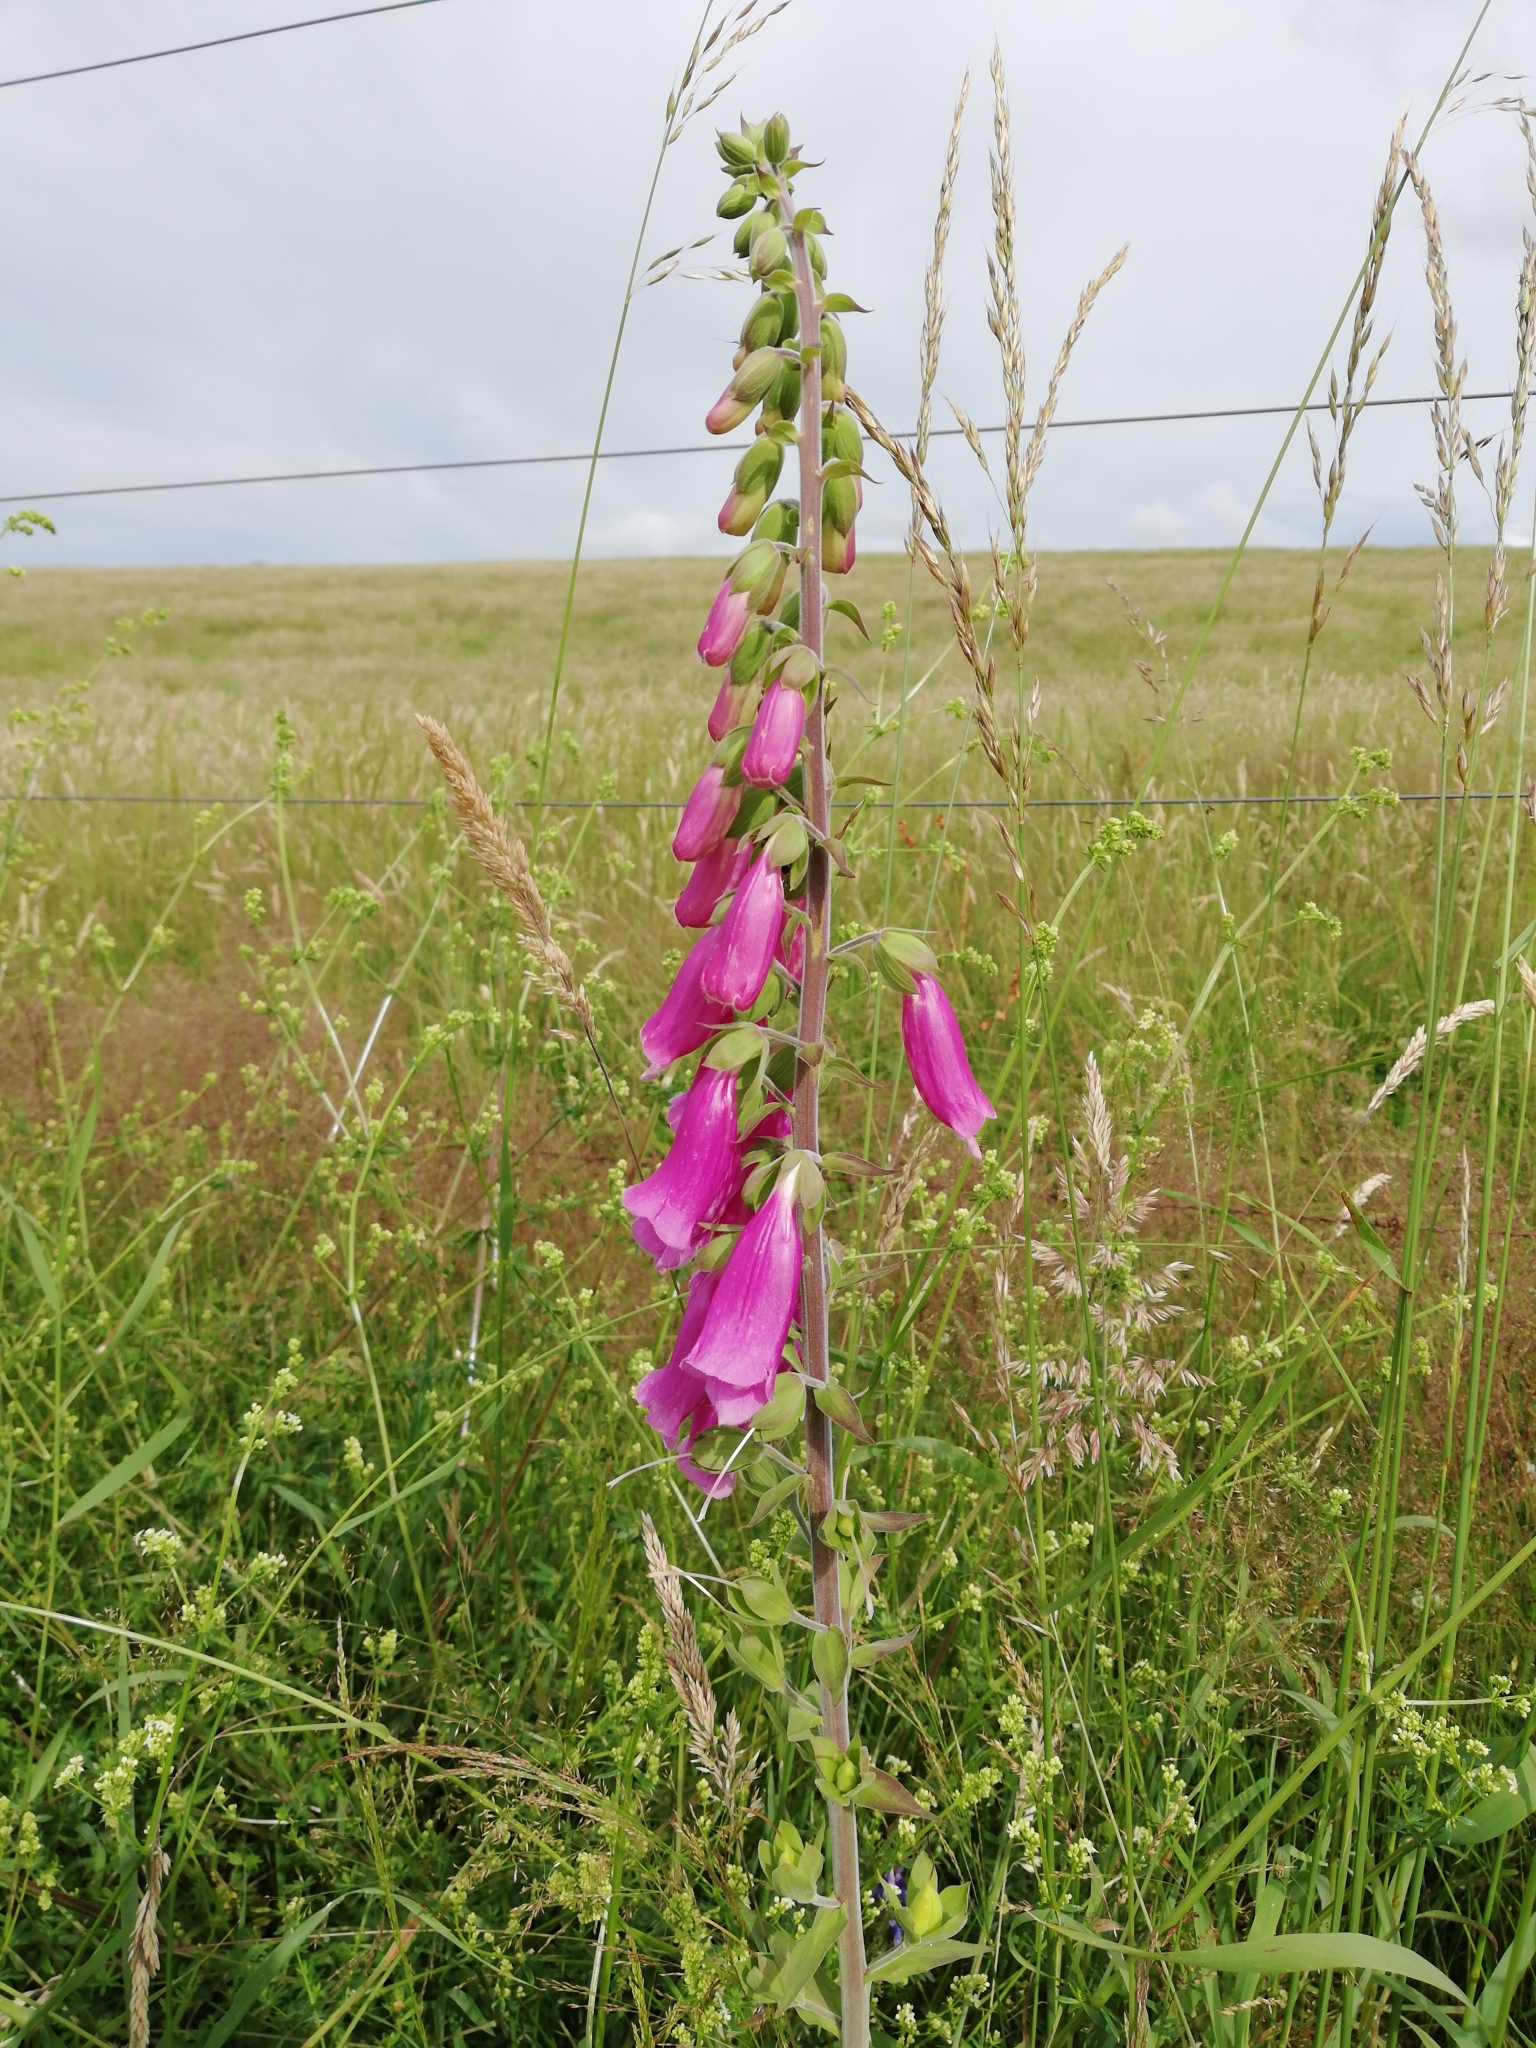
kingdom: Plantae
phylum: Tracheophyta
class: Magnoliopsida
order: Lamiales
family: Plantaginaceae
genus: Digitalis
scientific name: Digitalis purpurea
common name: Foxglove
